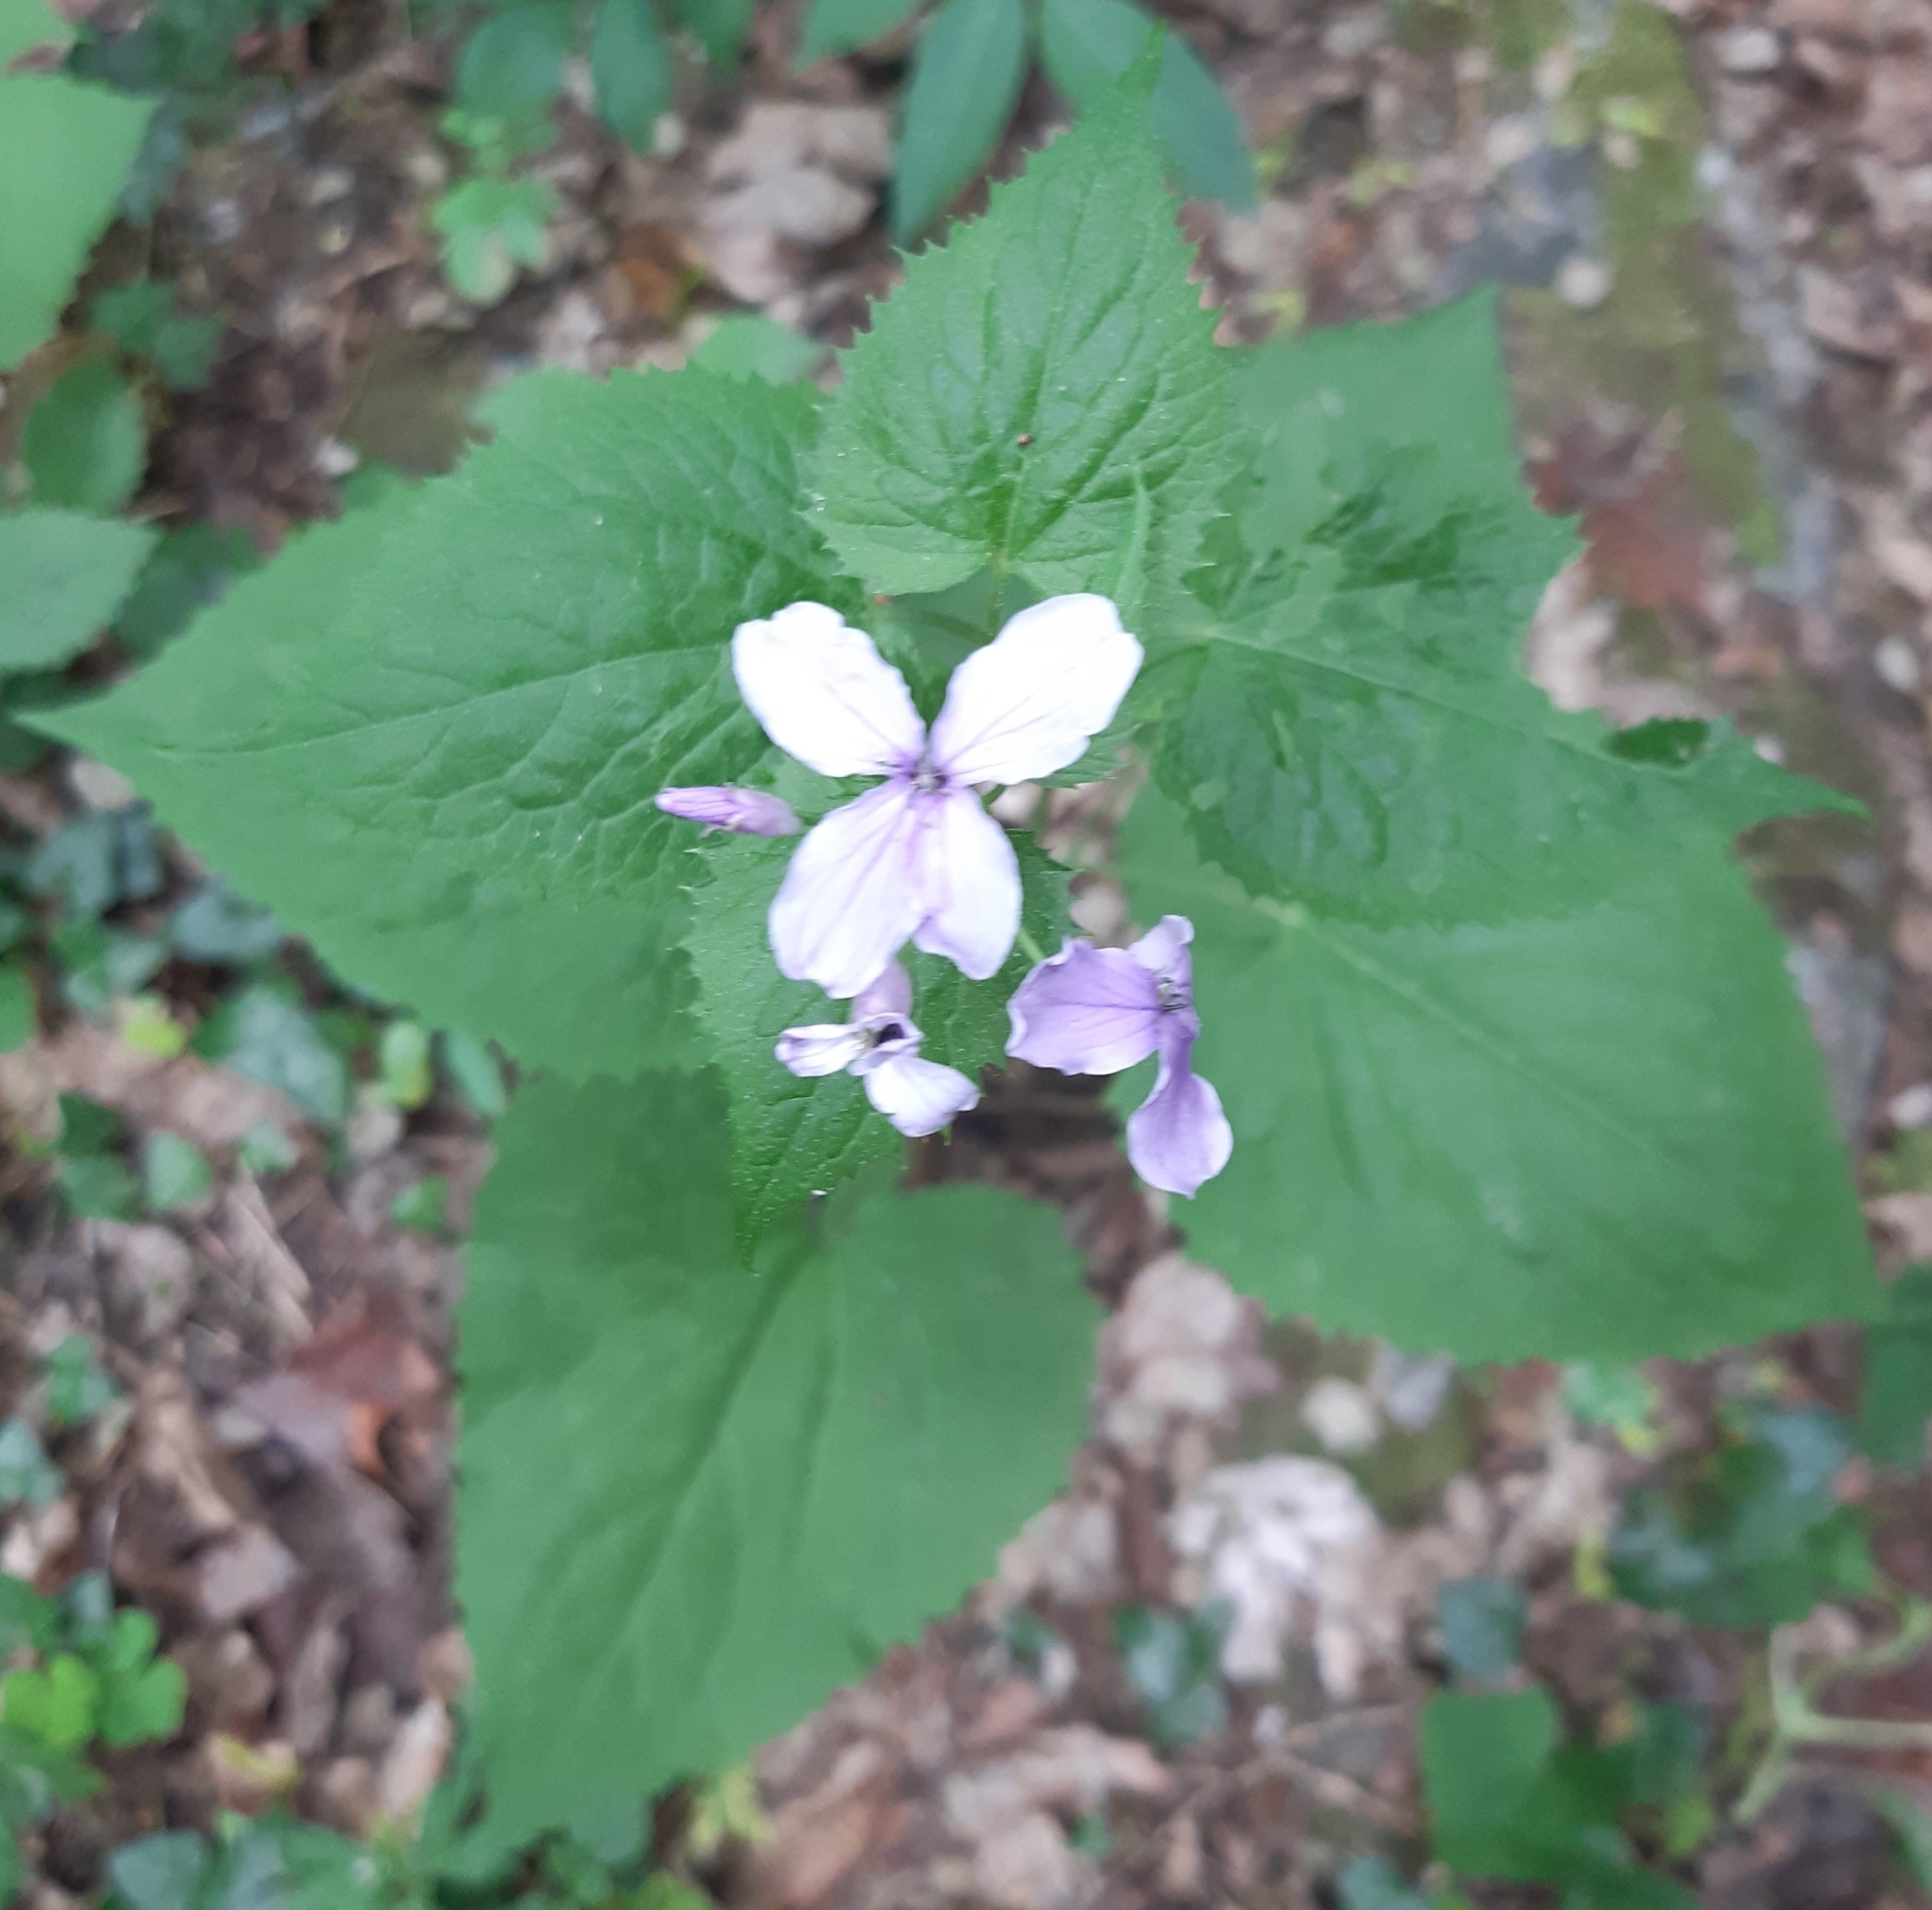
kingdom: Plantae
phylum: Tracheophyta
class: Magnoliopsida
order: Brassicales
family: Brassicaceae
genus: Lunaria
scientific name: Lunaria rediviva
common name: Perennial honesty
